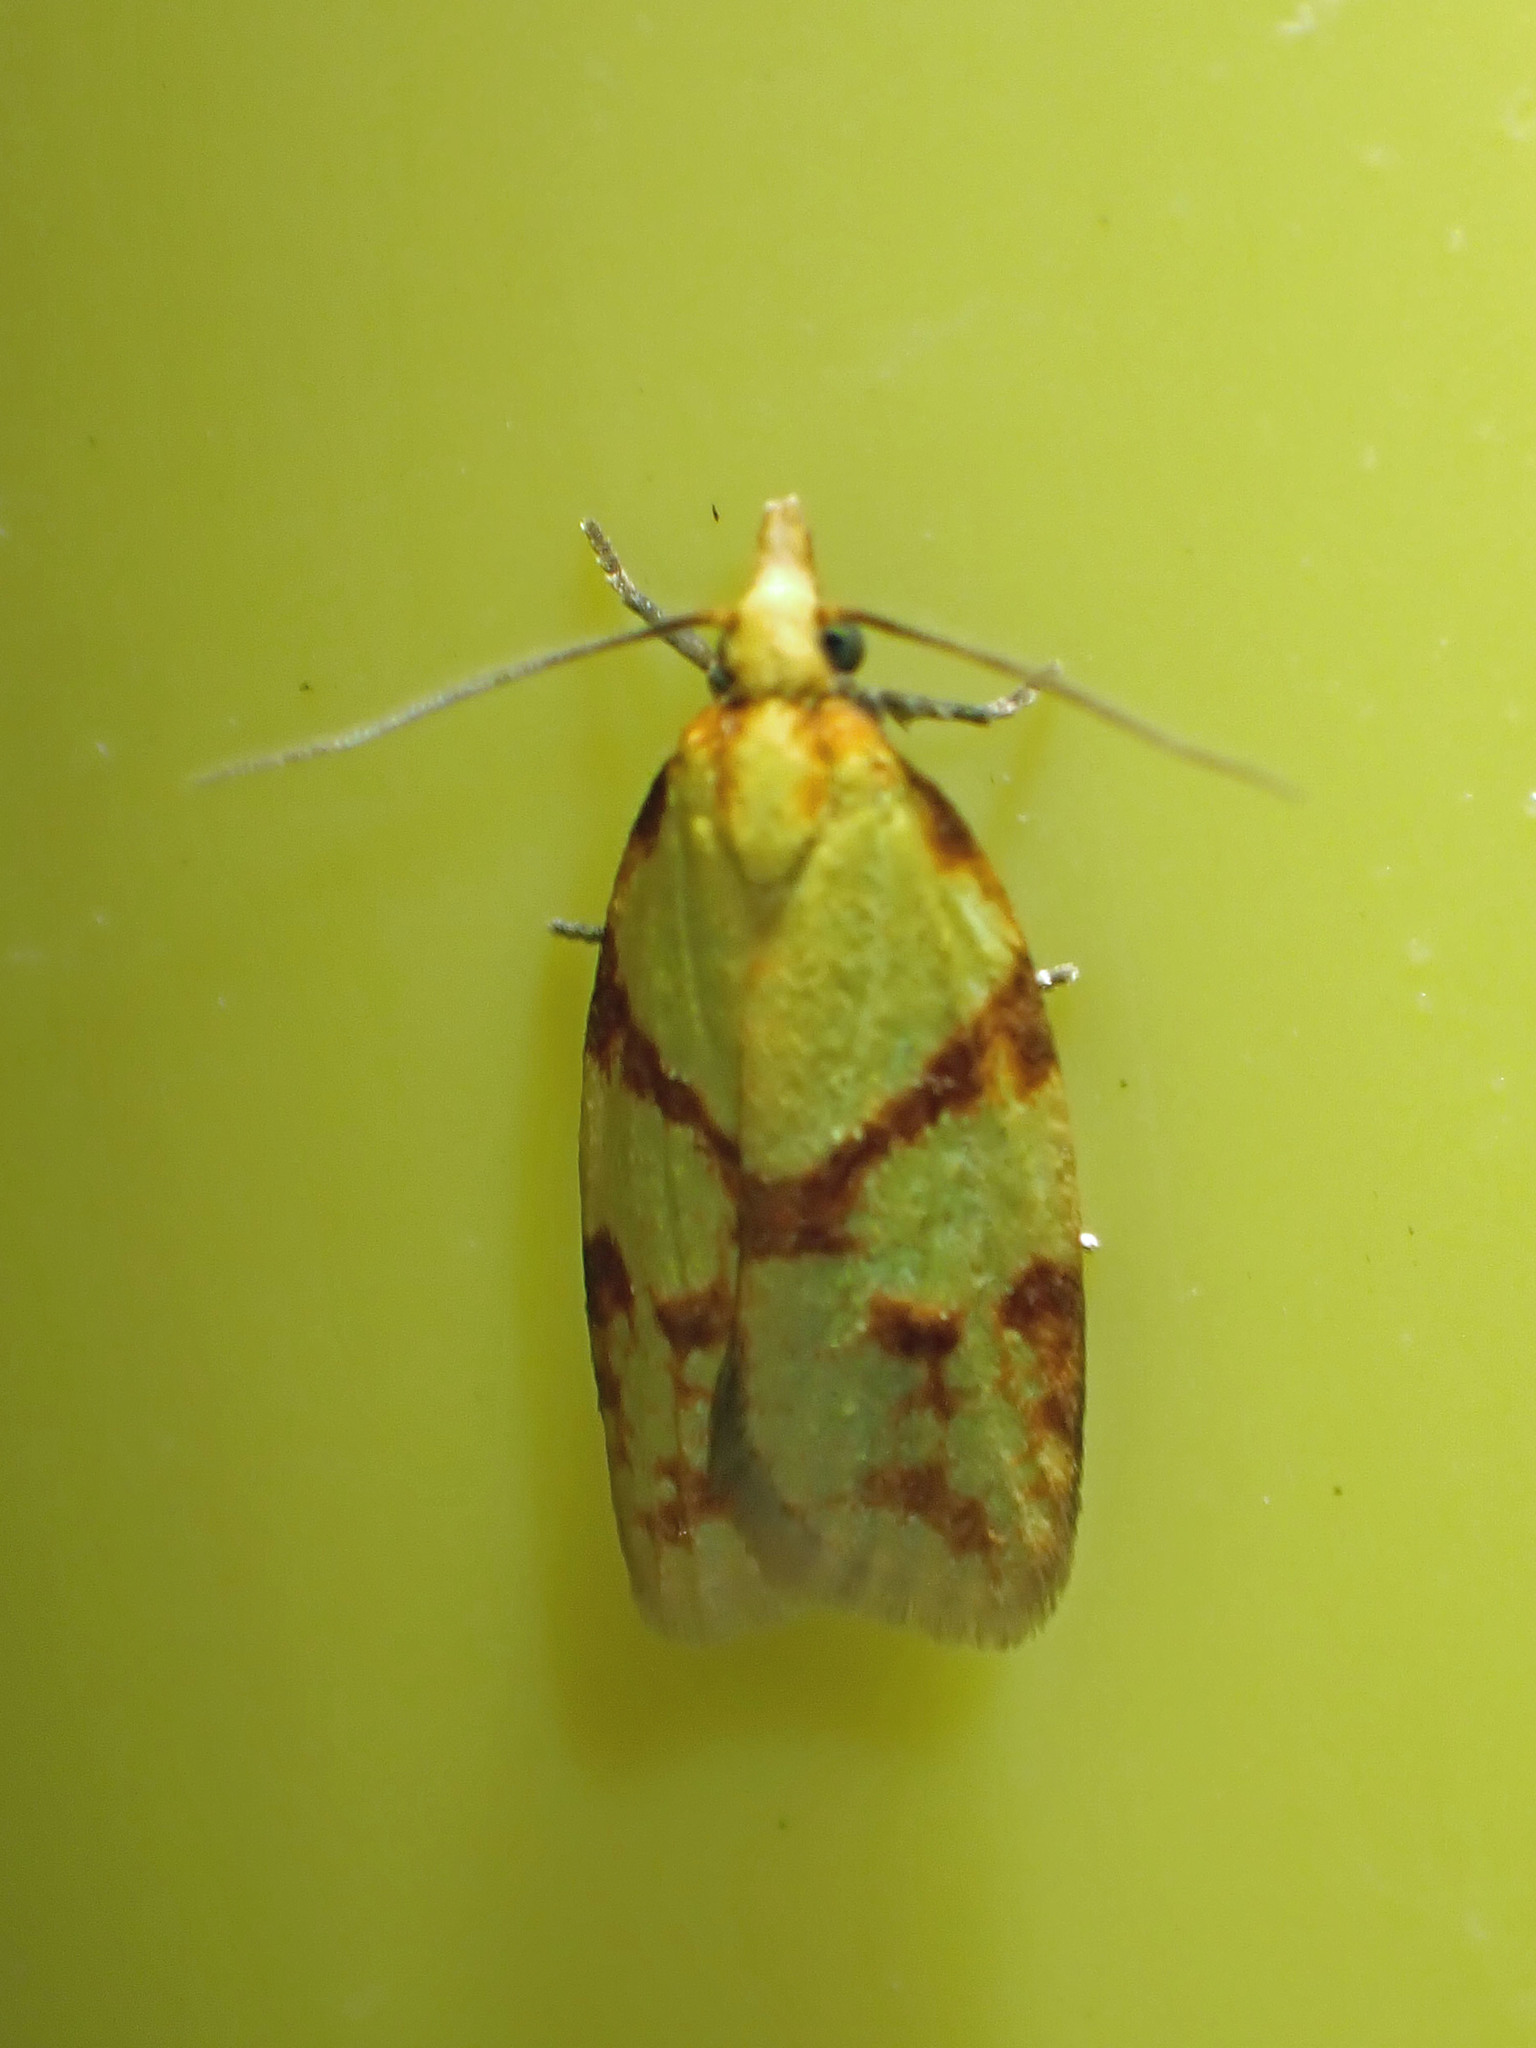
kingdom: Animalia
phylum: Arthropoda
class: Insecta
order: Lepidoptera
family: Tortricidae
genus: Sparganothis
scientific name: Sparganothis sulfureana
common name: Sparganothis fruitworm moth
